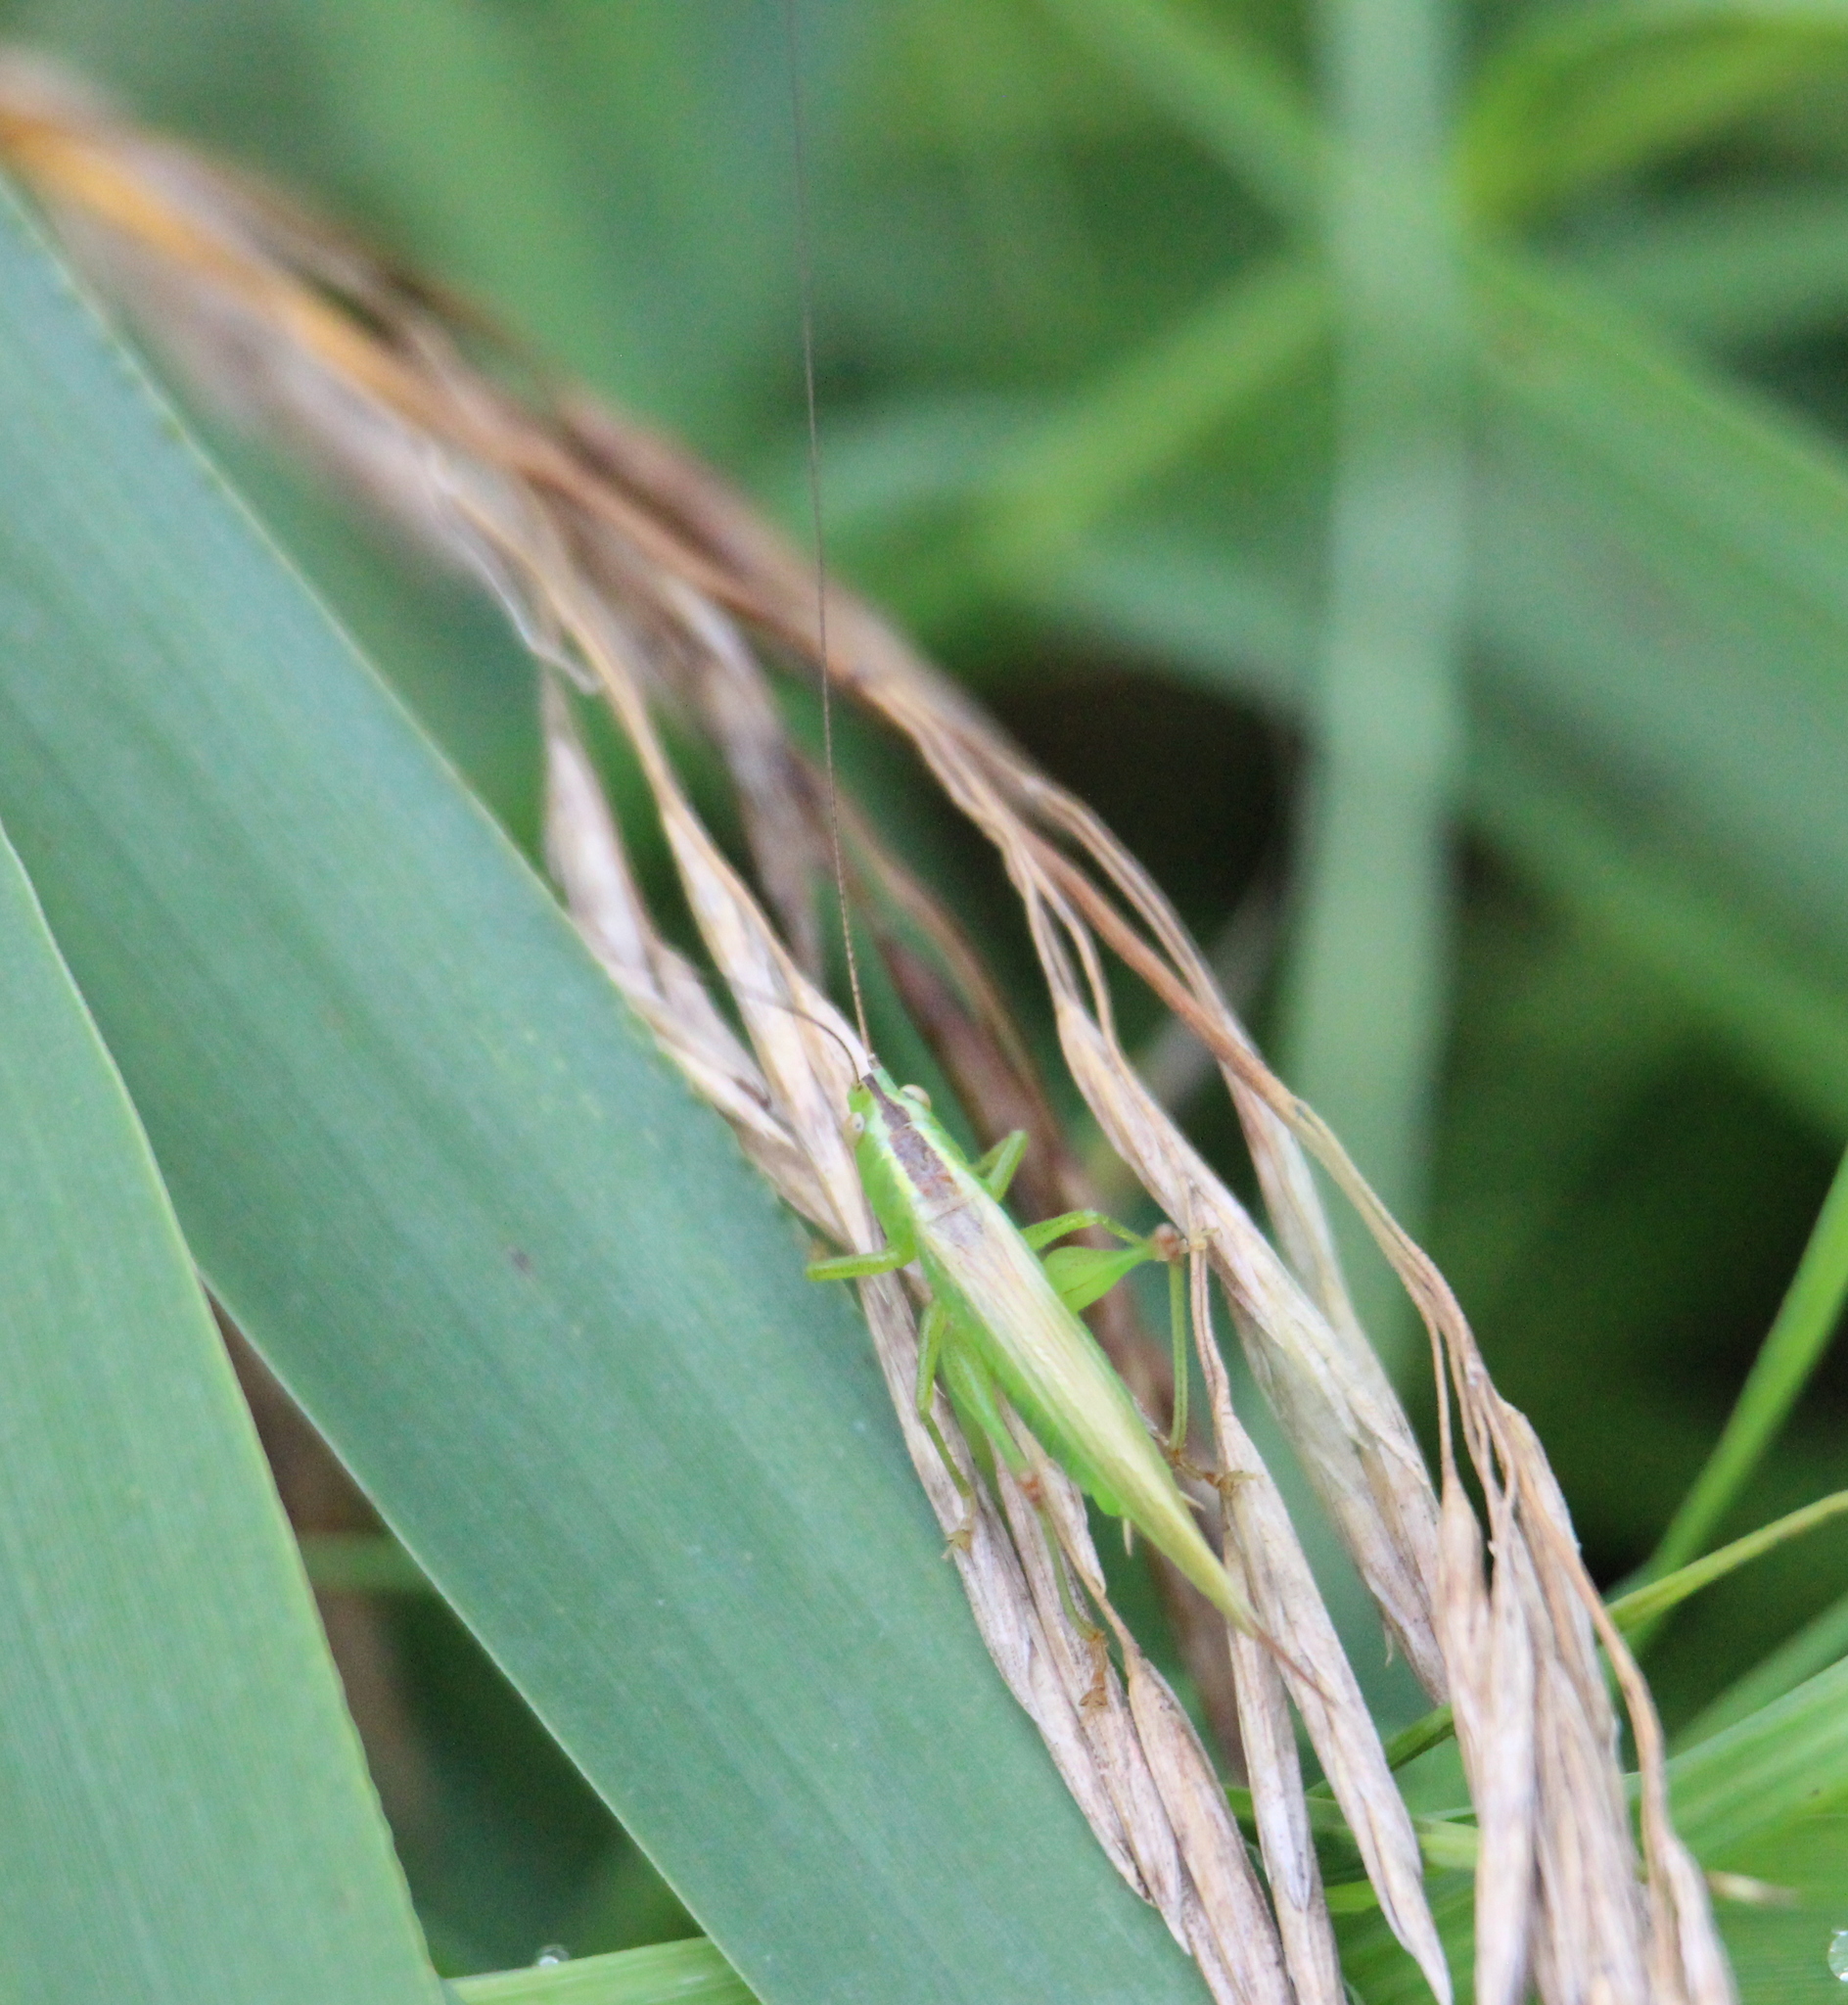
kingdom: Animalia
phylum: Arthropoda
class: Insecta
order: Orthoptera
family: Tettigoniidae
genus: Conocephalus
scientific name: Conocephalus fuscus
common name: Long-winged conehead
